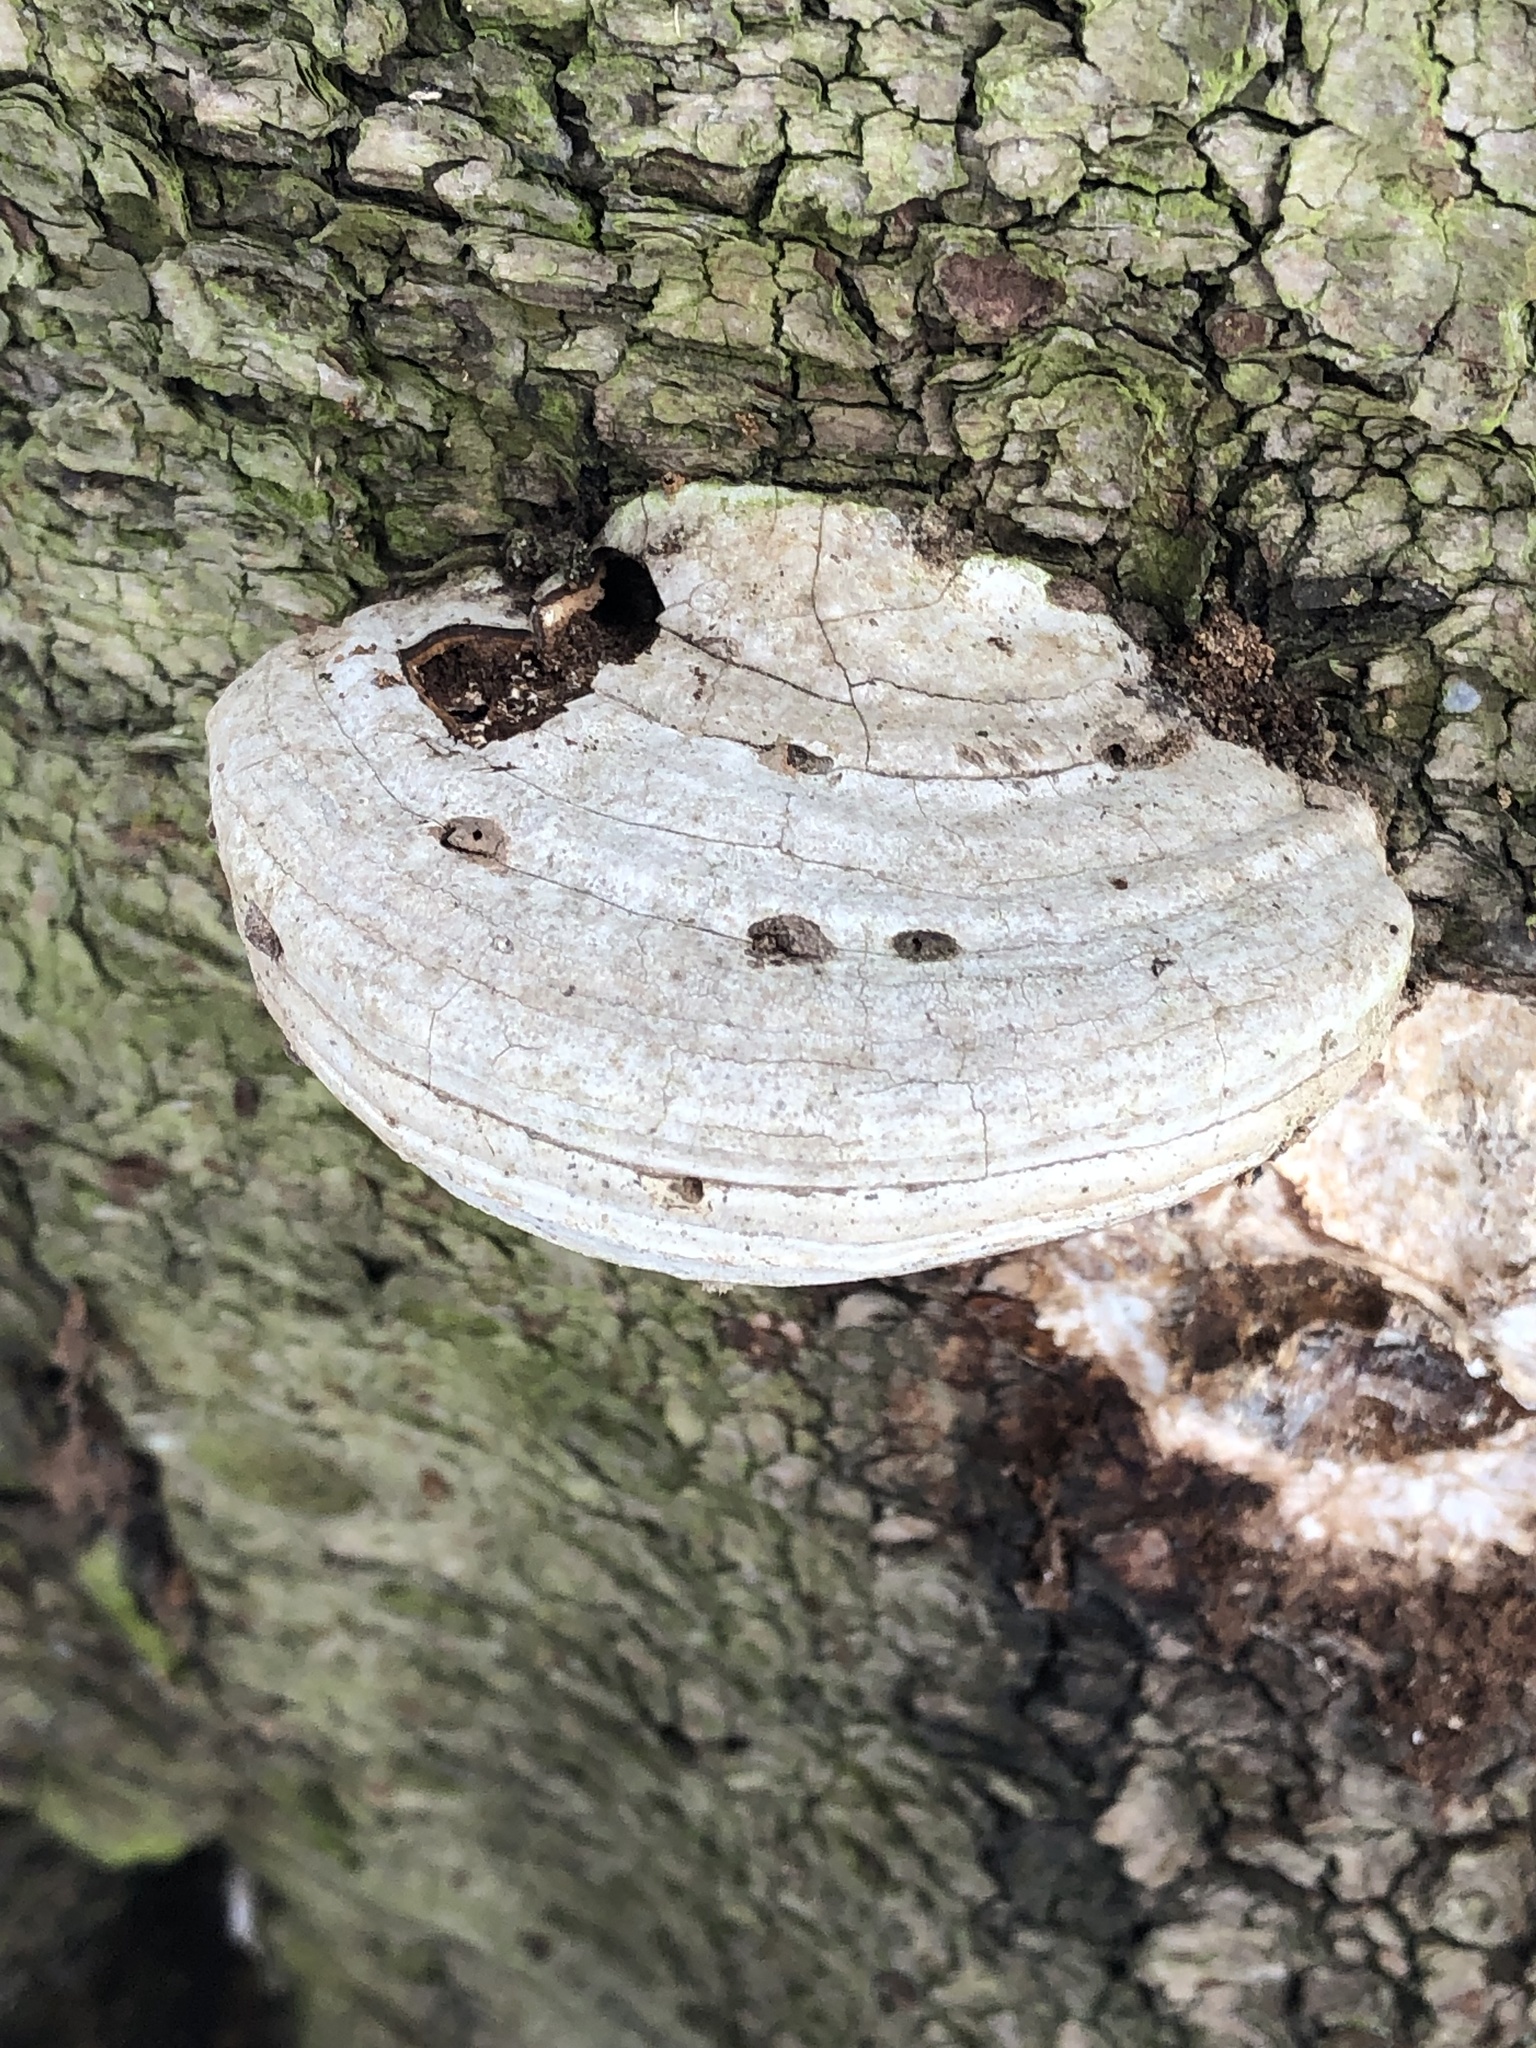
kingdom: Fungi
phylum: Basidiomycota
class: Agaricomycetes
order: Polyporales
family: Polyporaceae
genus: Fomes
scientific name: Fomes fomentarius
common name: Hoof fungus
